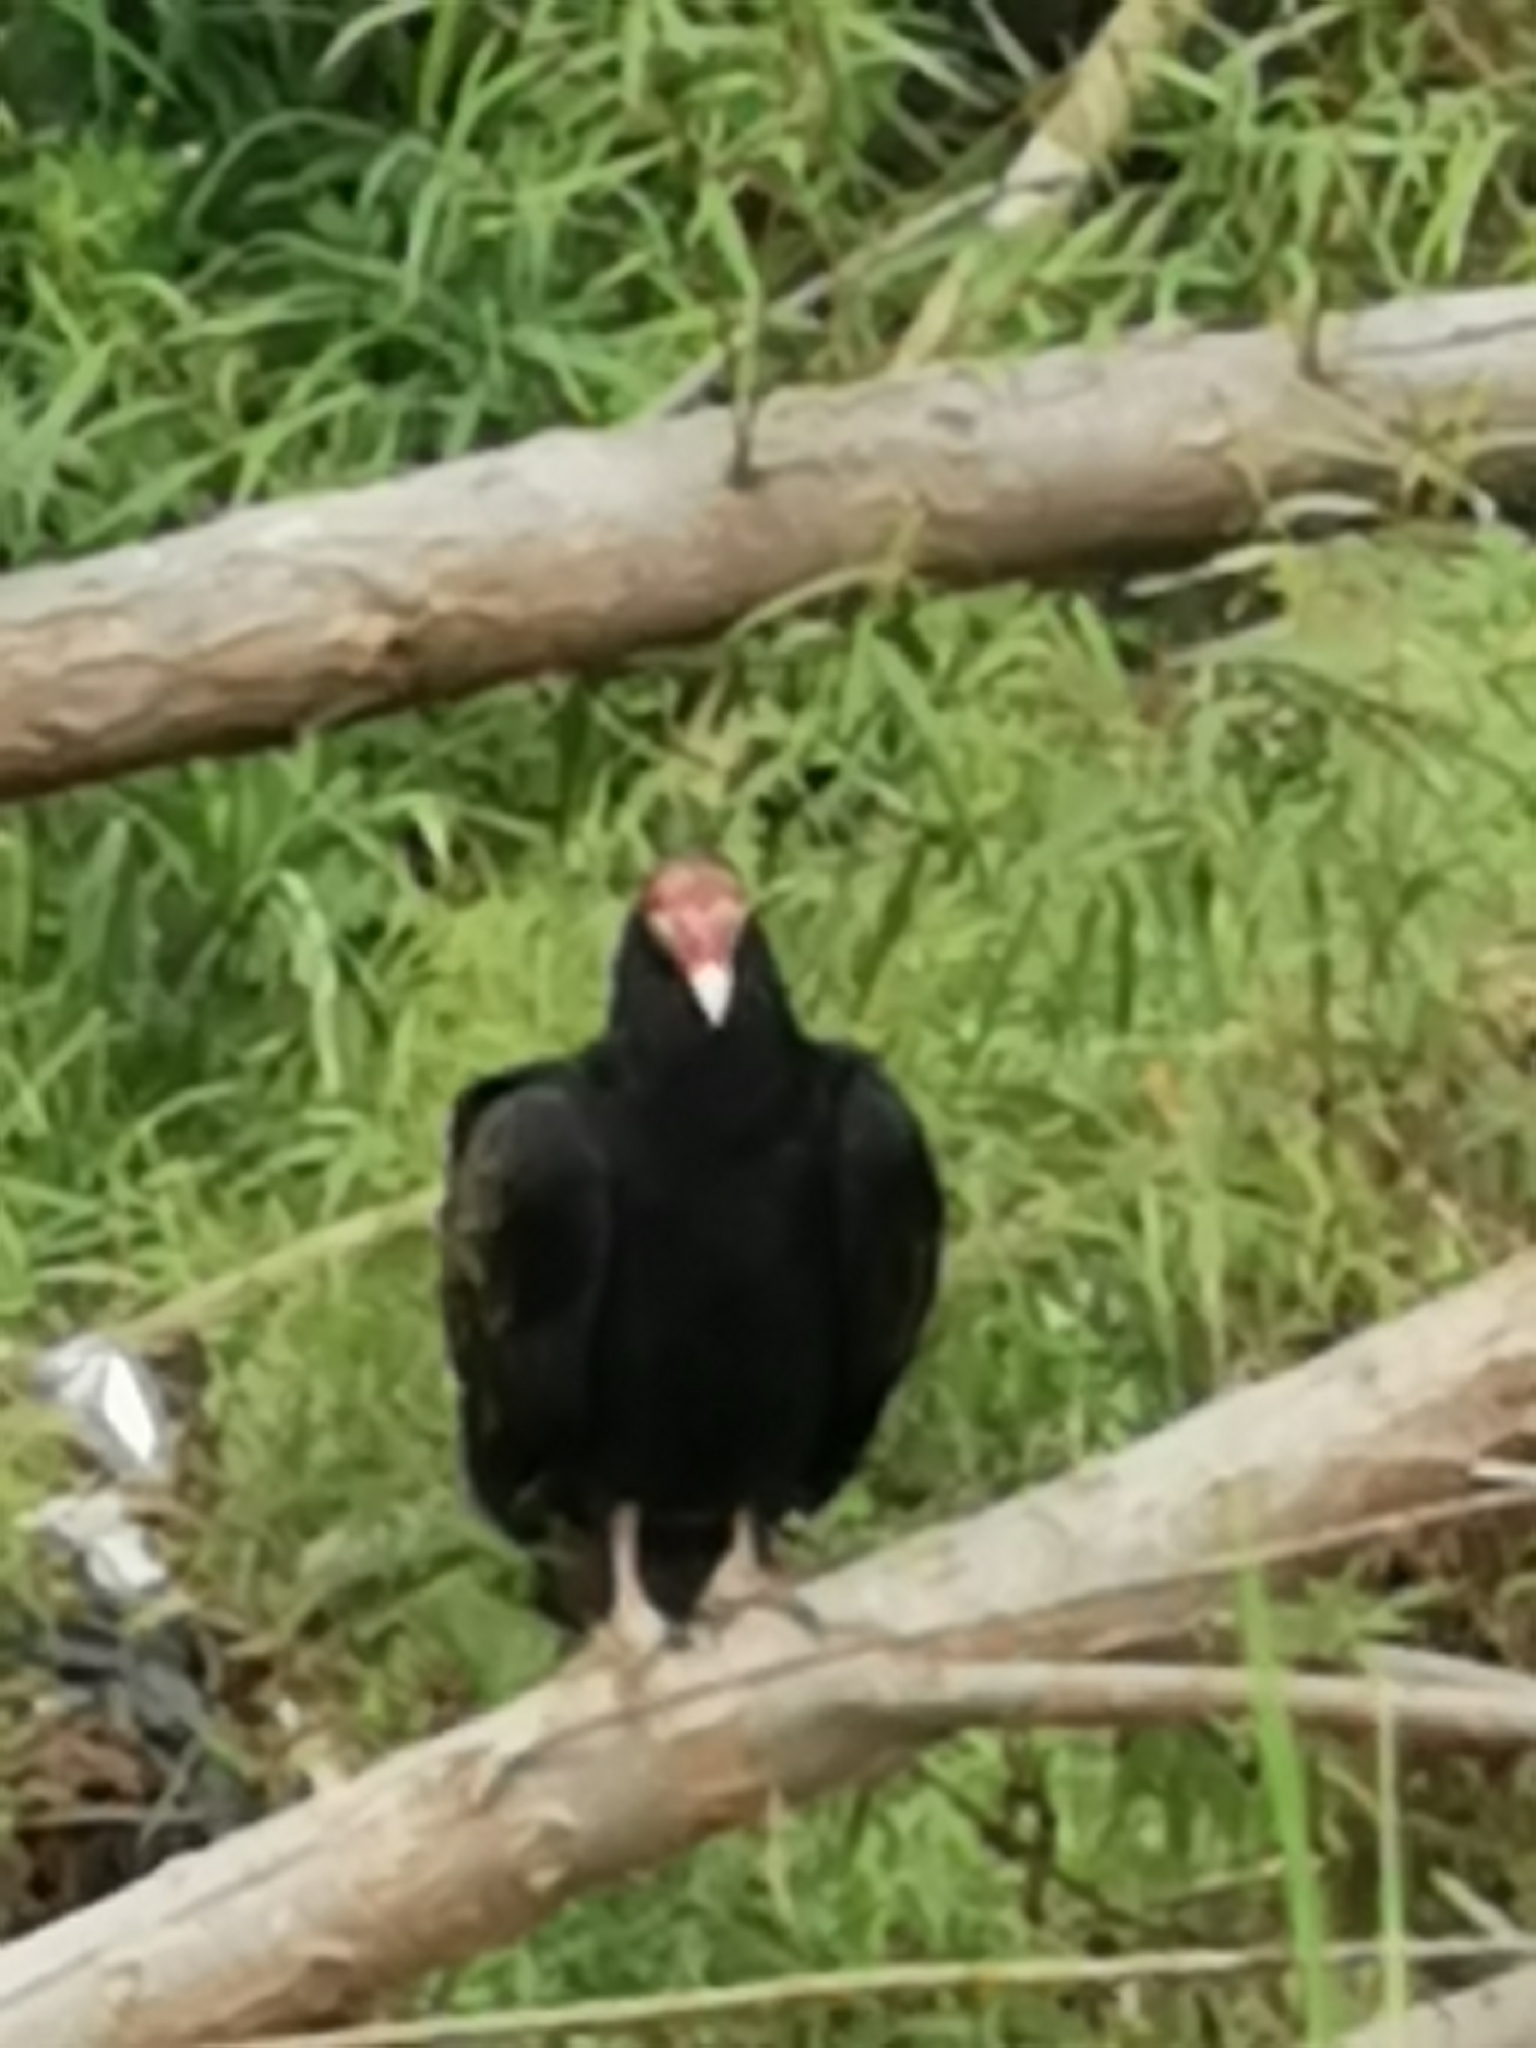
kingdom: Animalia
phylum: Chordata
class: Aves
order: Accipitriformes
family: Cathartidae
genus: Cathartes
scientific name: Cathartes aura
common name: Turkey vulture
